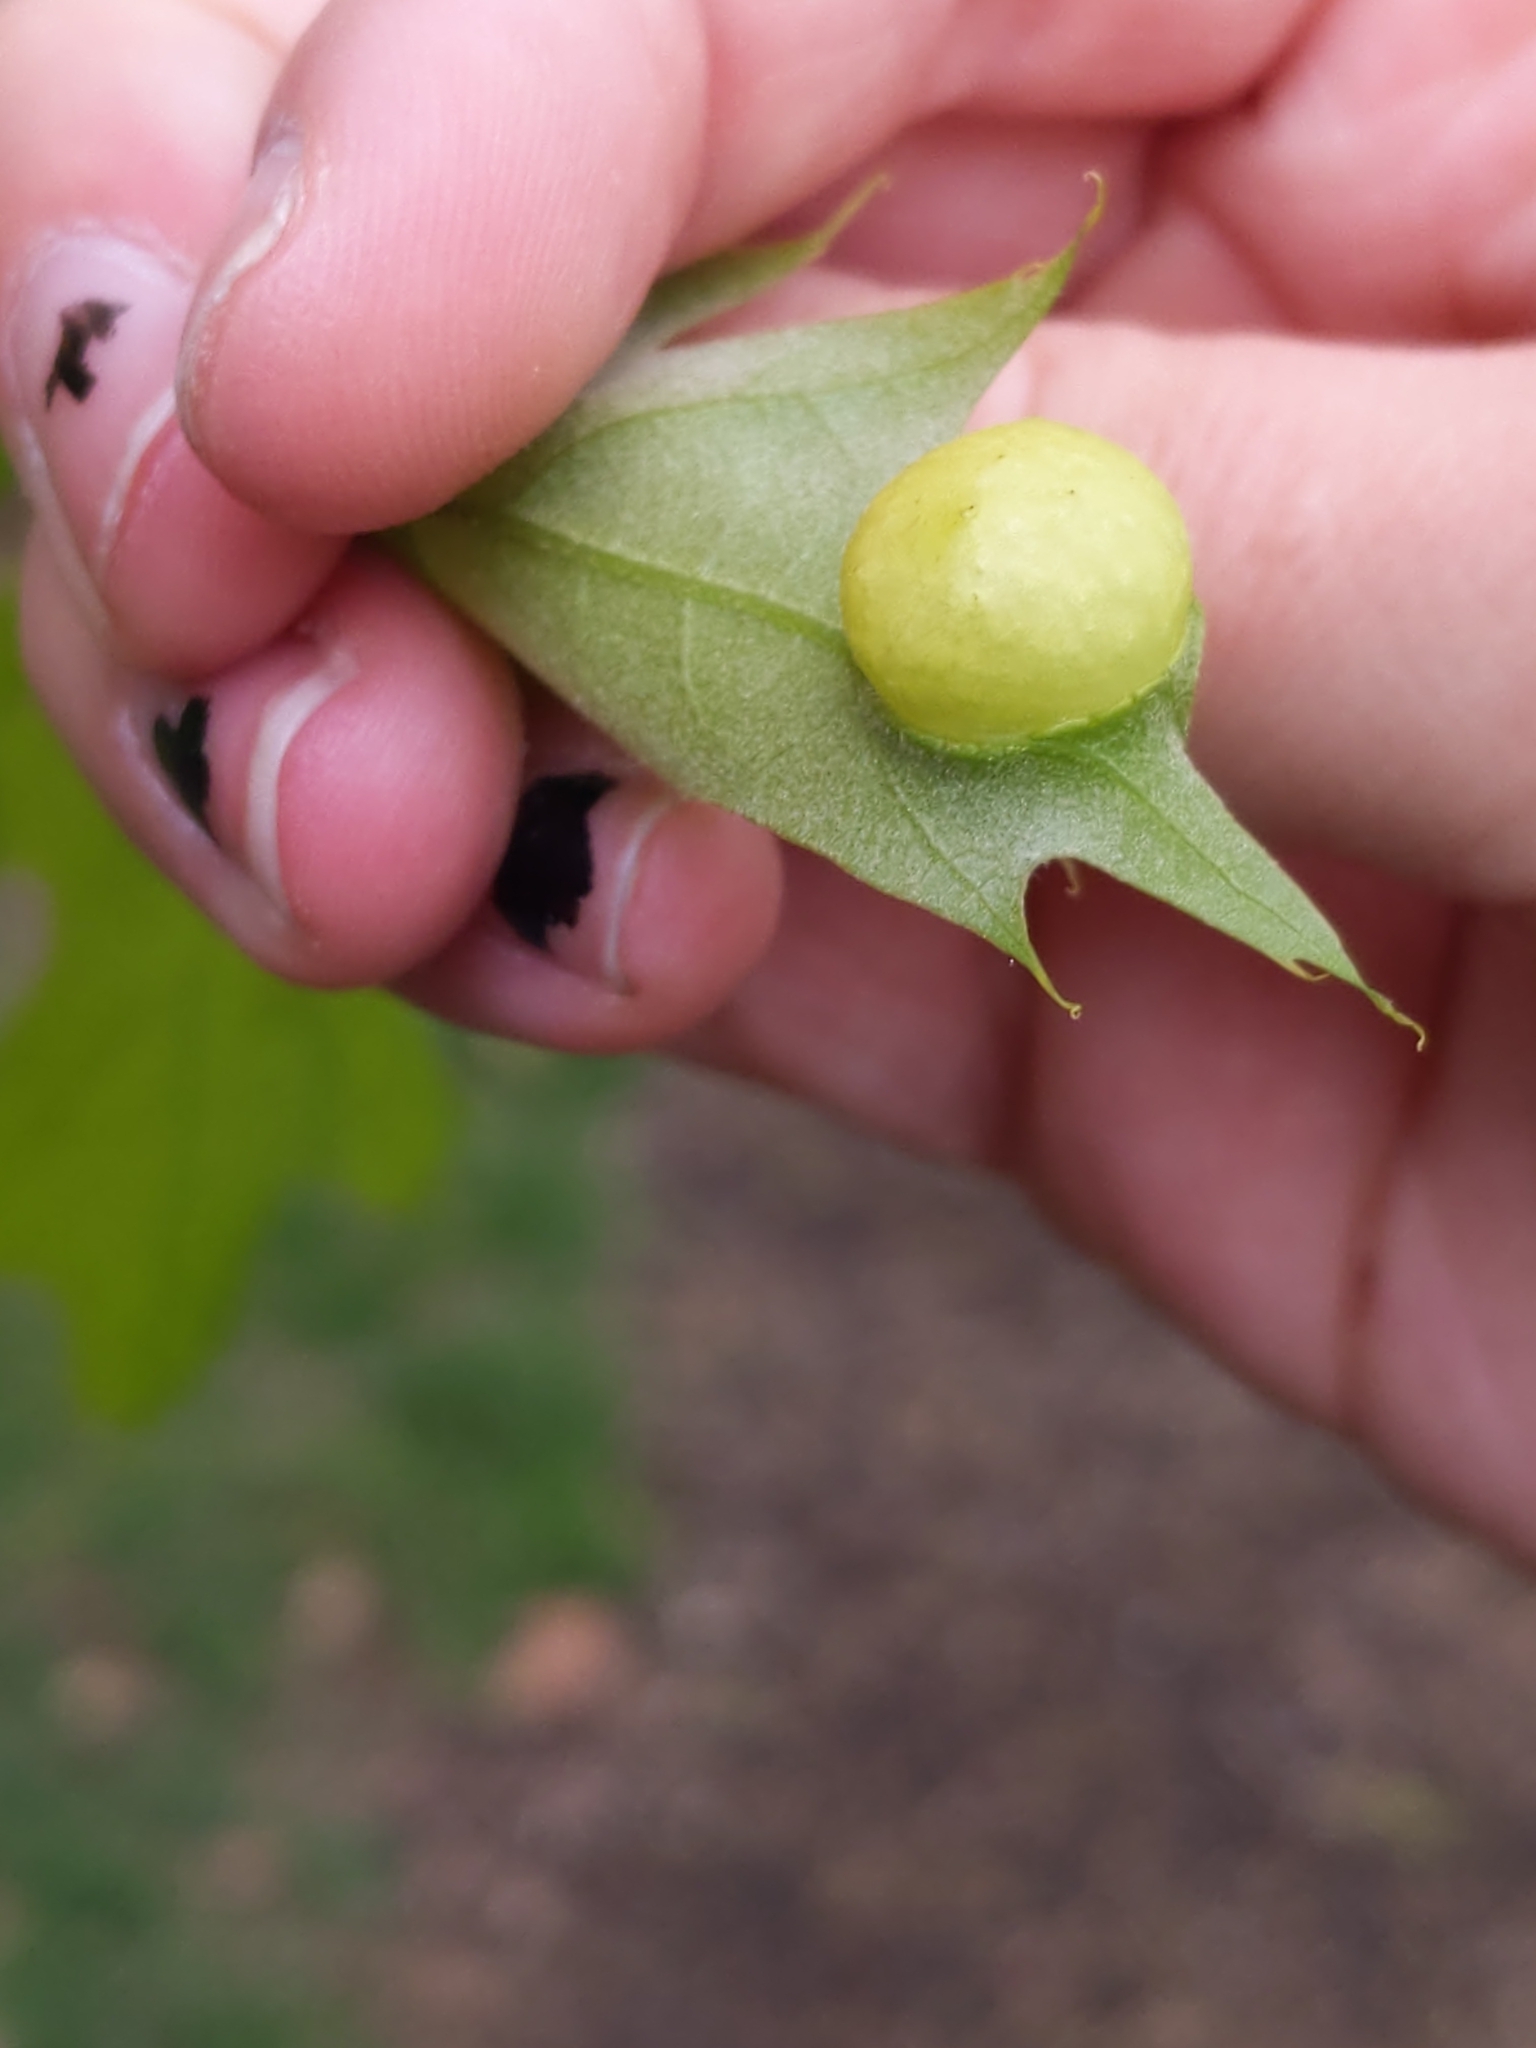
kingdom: Animalia
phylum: Arthropoda
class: Insecta
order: Hymenoptera
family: Cynipidae
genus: Amphibolips
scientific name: Amphibolips
